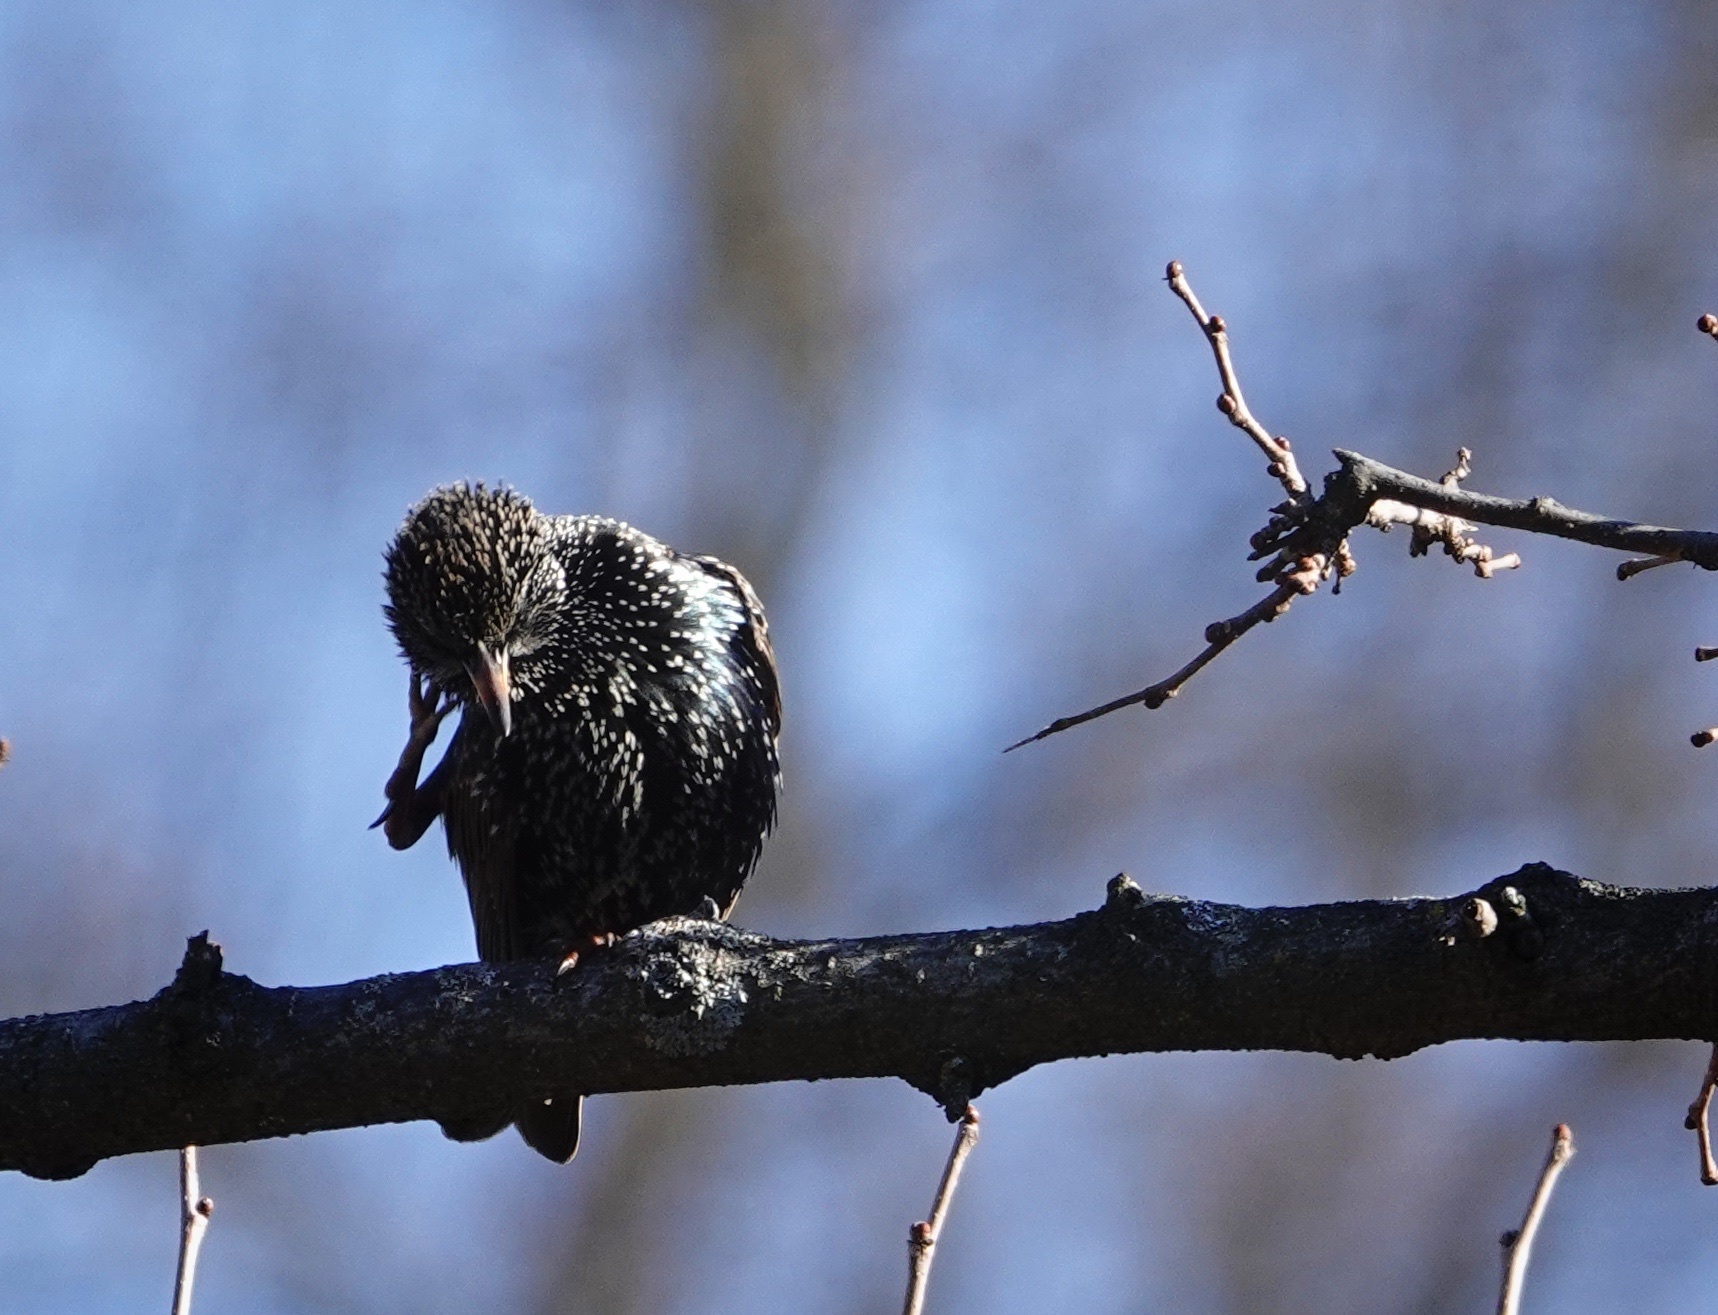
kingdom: Animalia
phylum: Chordata
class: Aves
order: Passeriformes
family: Sturnidae
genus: Sturnus
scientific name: Sturnus vulgaris
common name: Common starling
